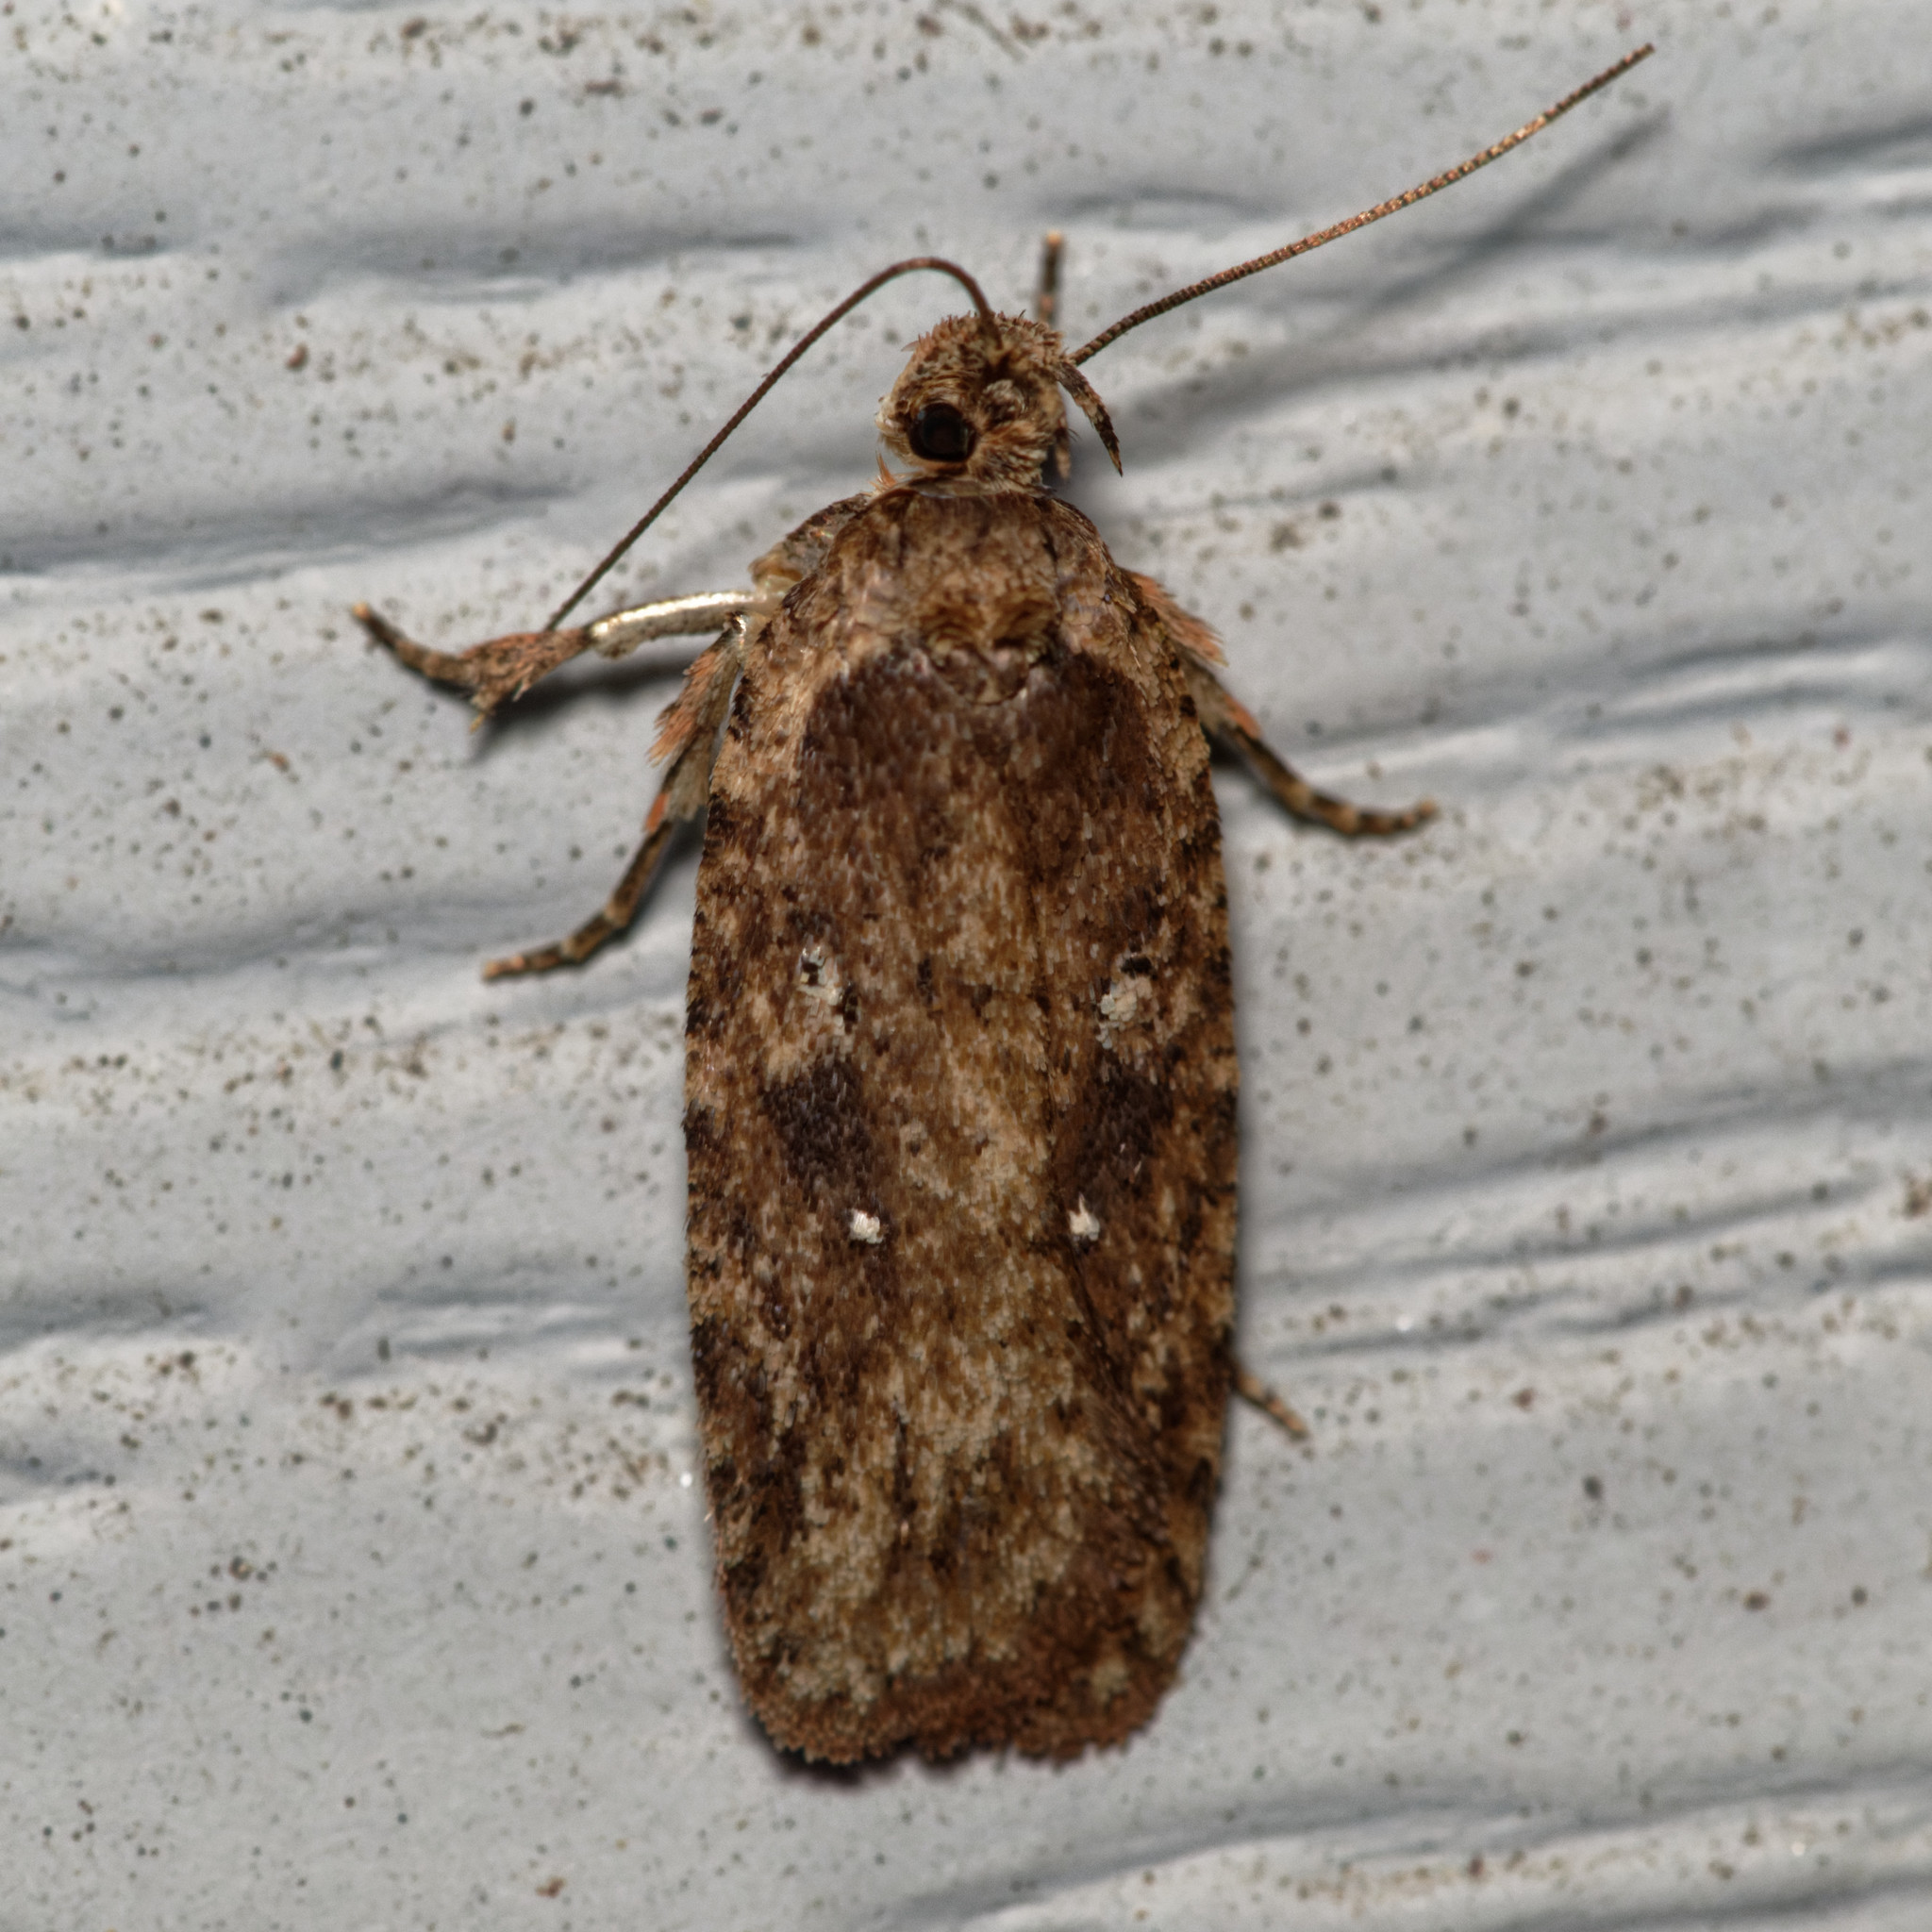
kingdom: Animalia
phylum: Arthropoda
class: Insecta
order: Lepidoptera
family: Depressariidae
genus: Agonopterix
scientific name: Agonopterix pulvipennella
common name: Goldenrod leafffolder
